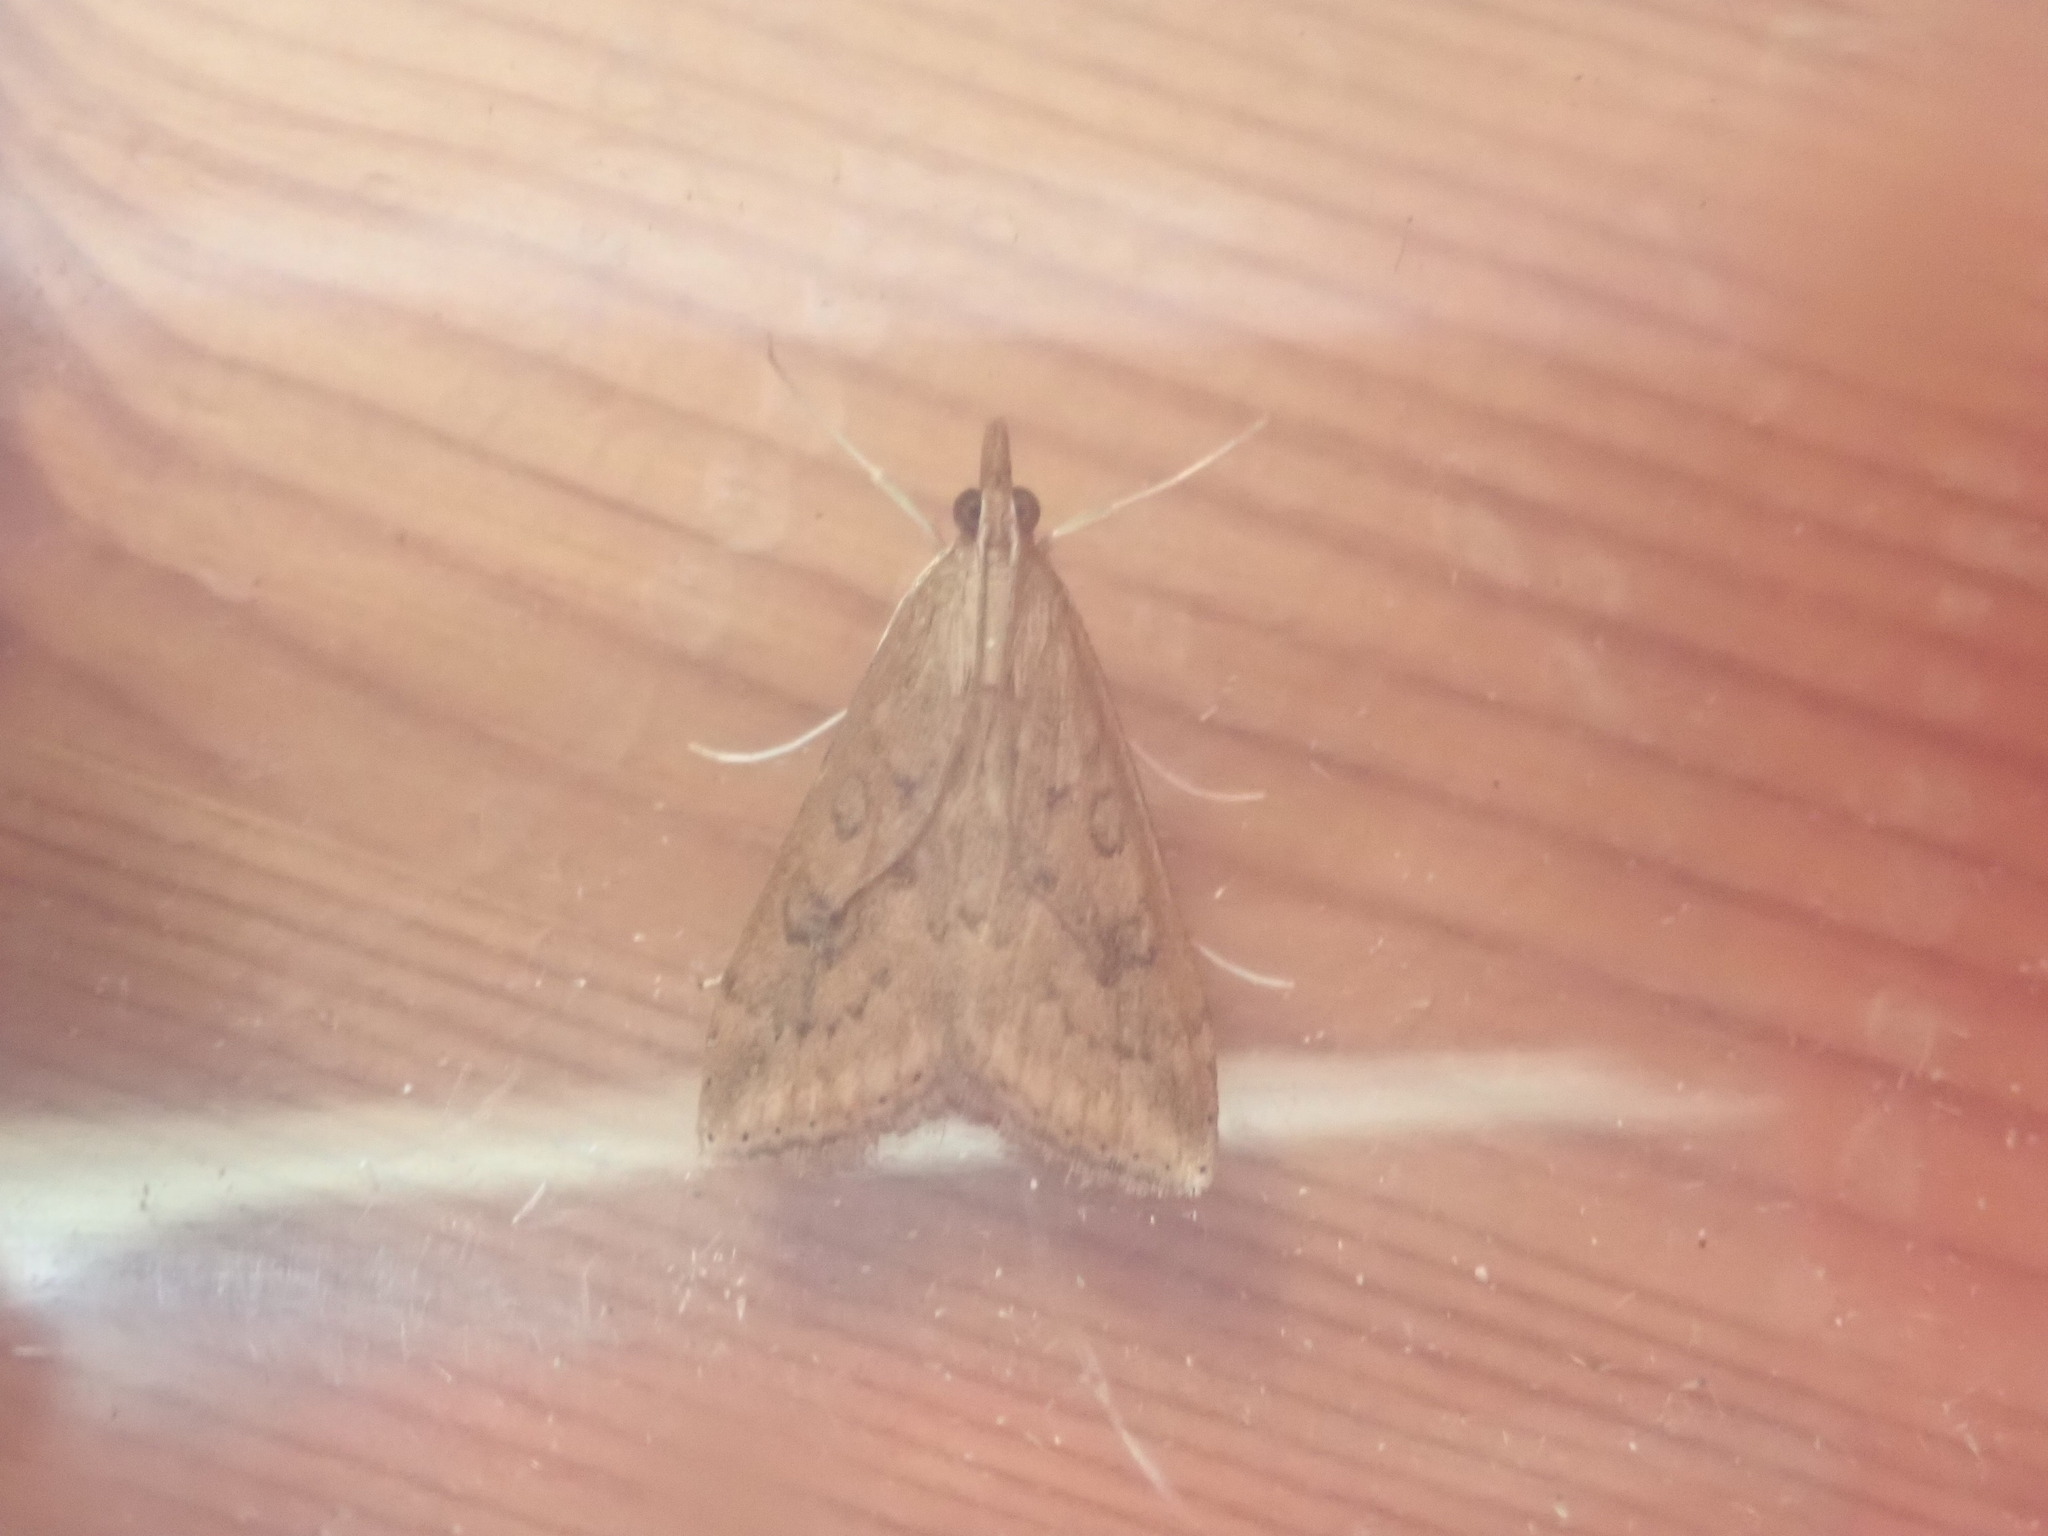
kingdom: Animalia
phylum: Arthropoda
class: Insecta
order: Lepidoptera
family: Crambidae
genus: Udea
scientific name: Udea ferrugalis
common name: Rusty dot
